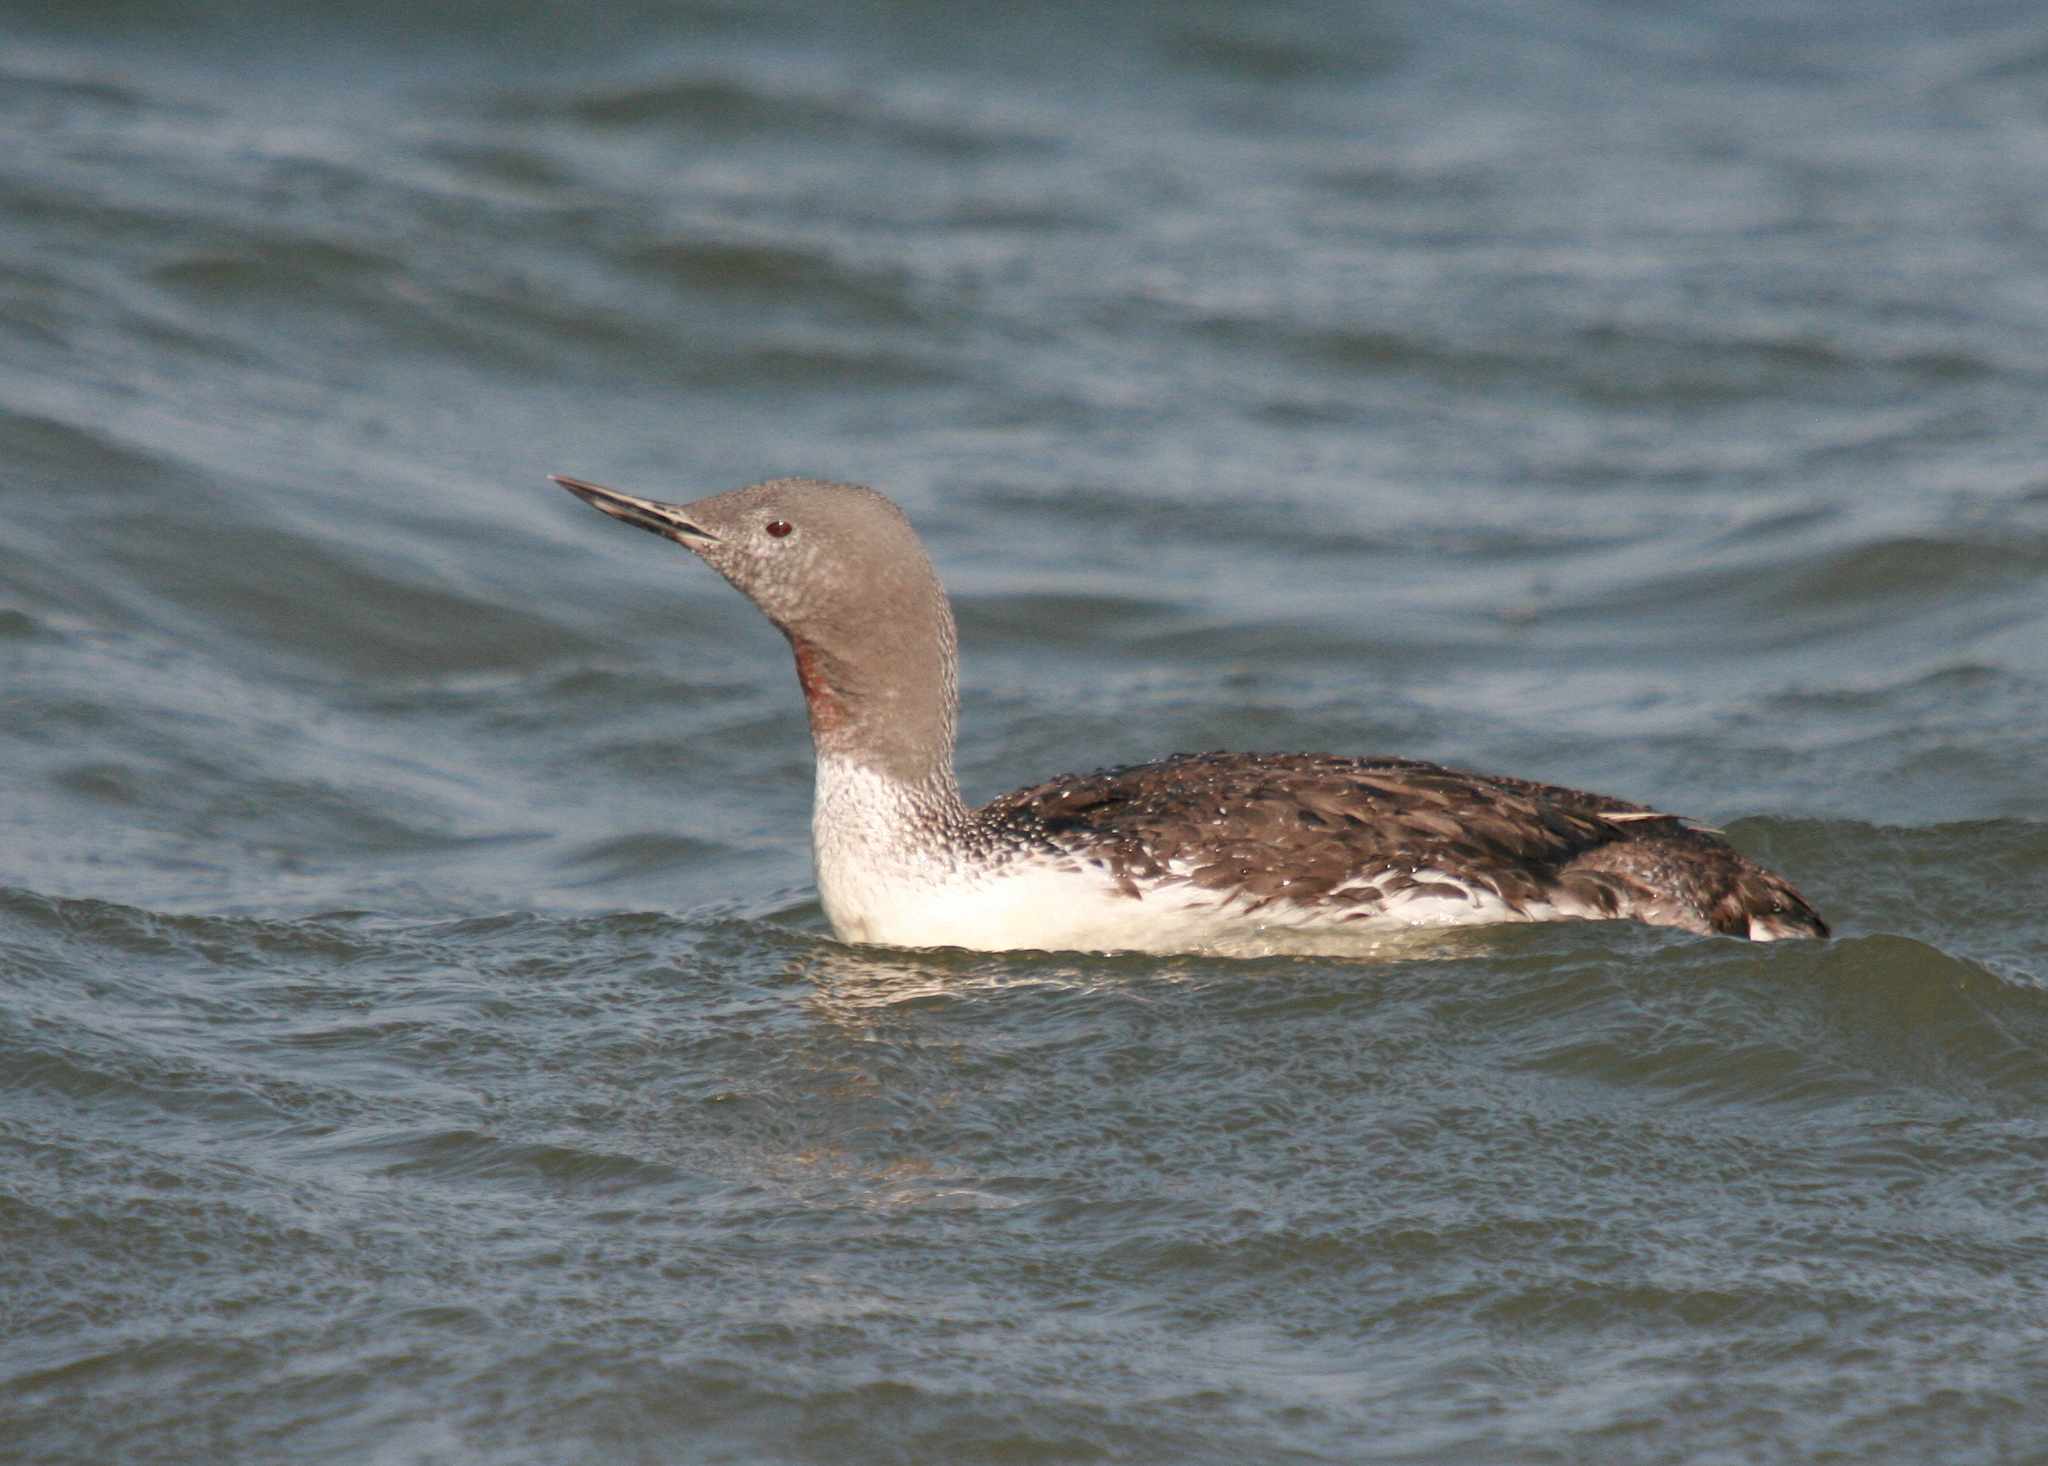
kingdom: Animalia
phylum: Chordata
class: Aves
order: Gaviiformes
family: Gaviidae
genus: Gavia
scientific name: Gavia stellata
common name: Red-throated loon
